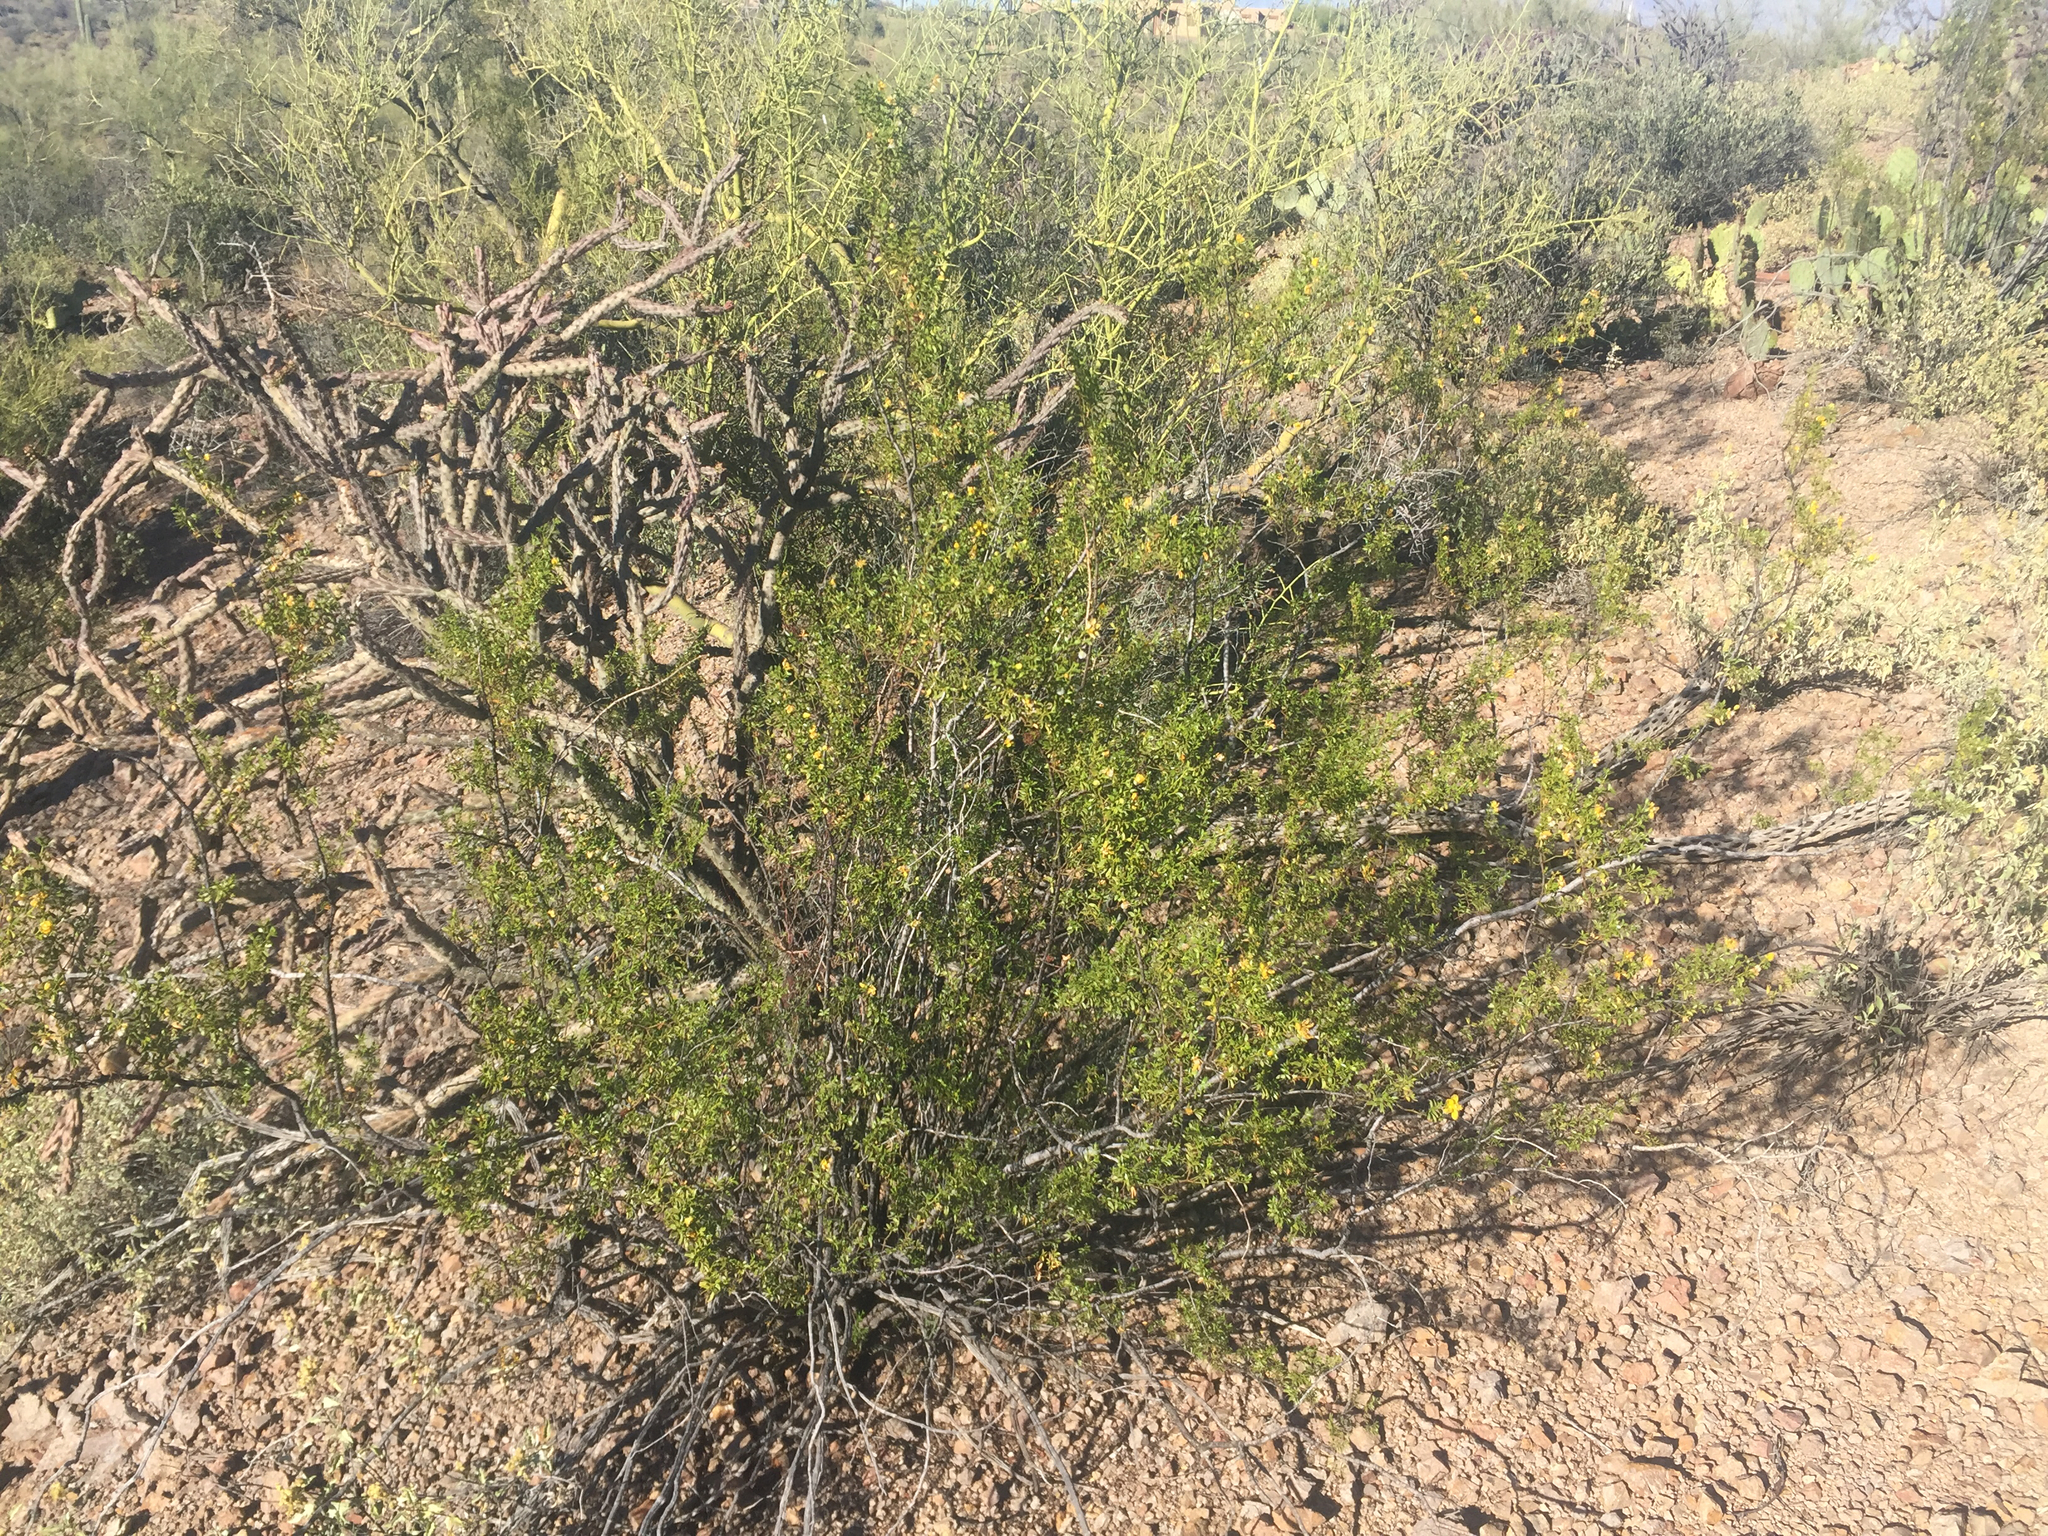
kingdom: Plantae
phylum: Tracheophyta
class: Magnoliopsida
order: Zygophyllales
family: Zygophyllaceae
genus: Larrea
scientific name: Larrea tridentata
